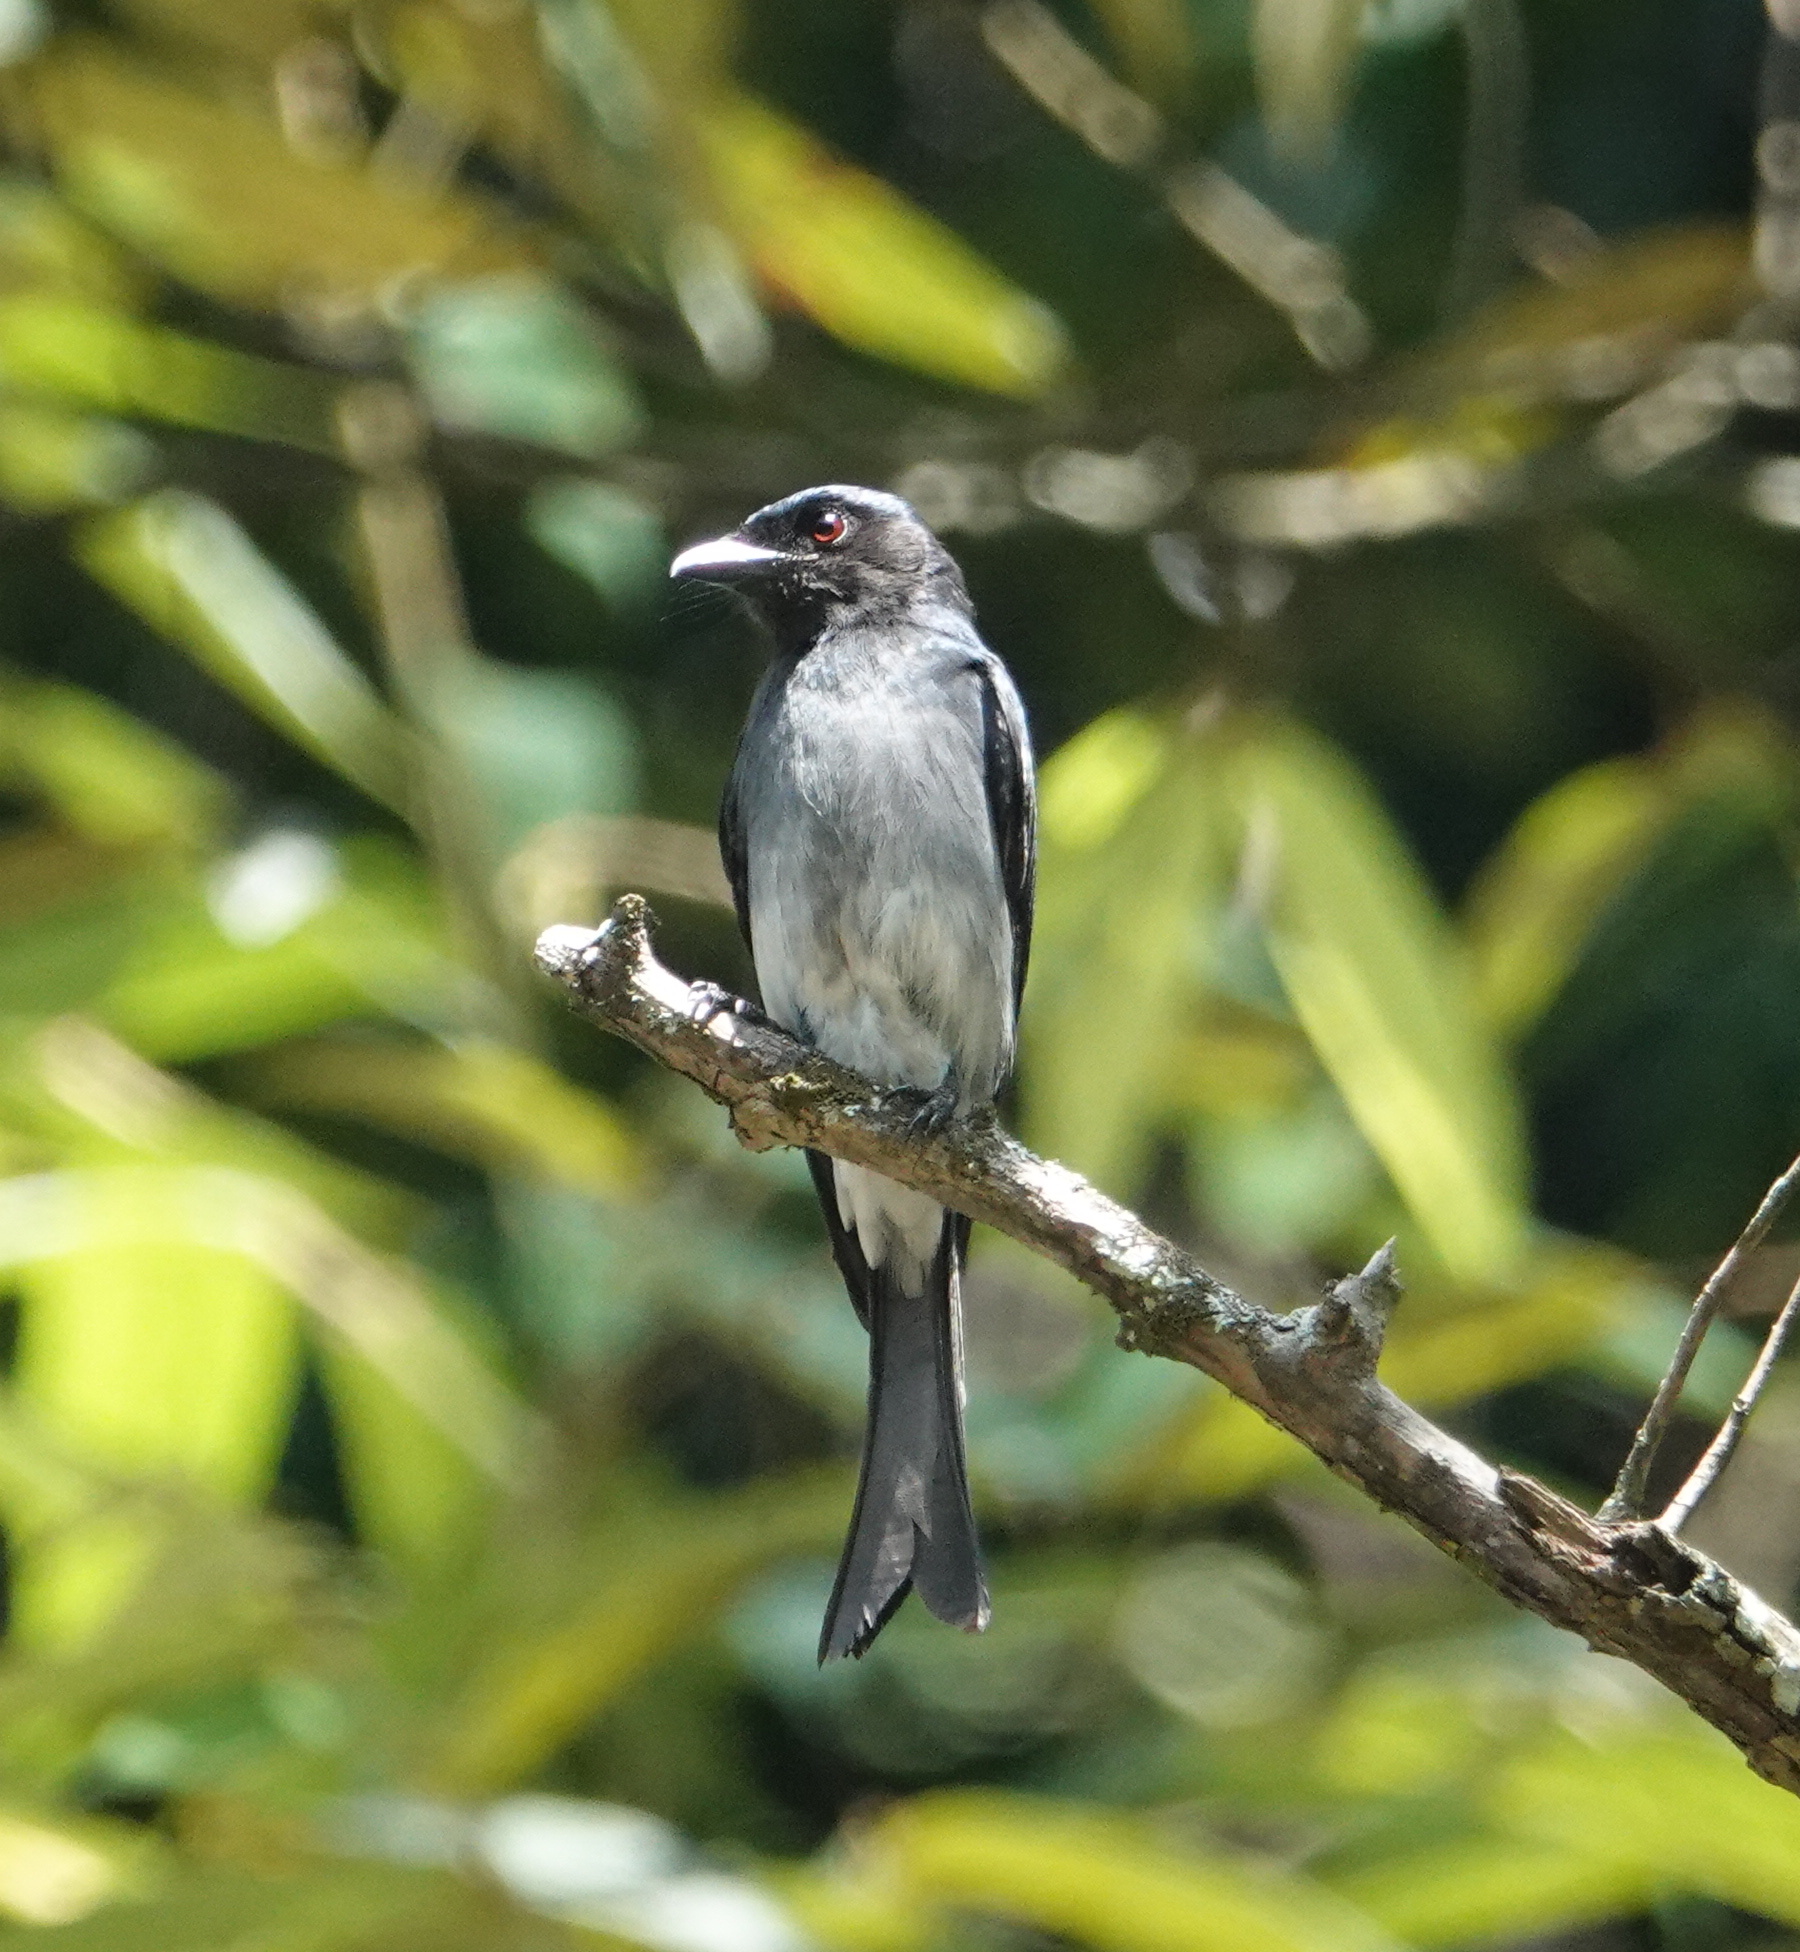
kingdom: Animalia
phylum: Chordata
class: Aves
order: Passeriformes
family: Dicruridae
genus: Dicrurus
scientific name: Dicrurus caerulescens
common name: White-bellied drongo
